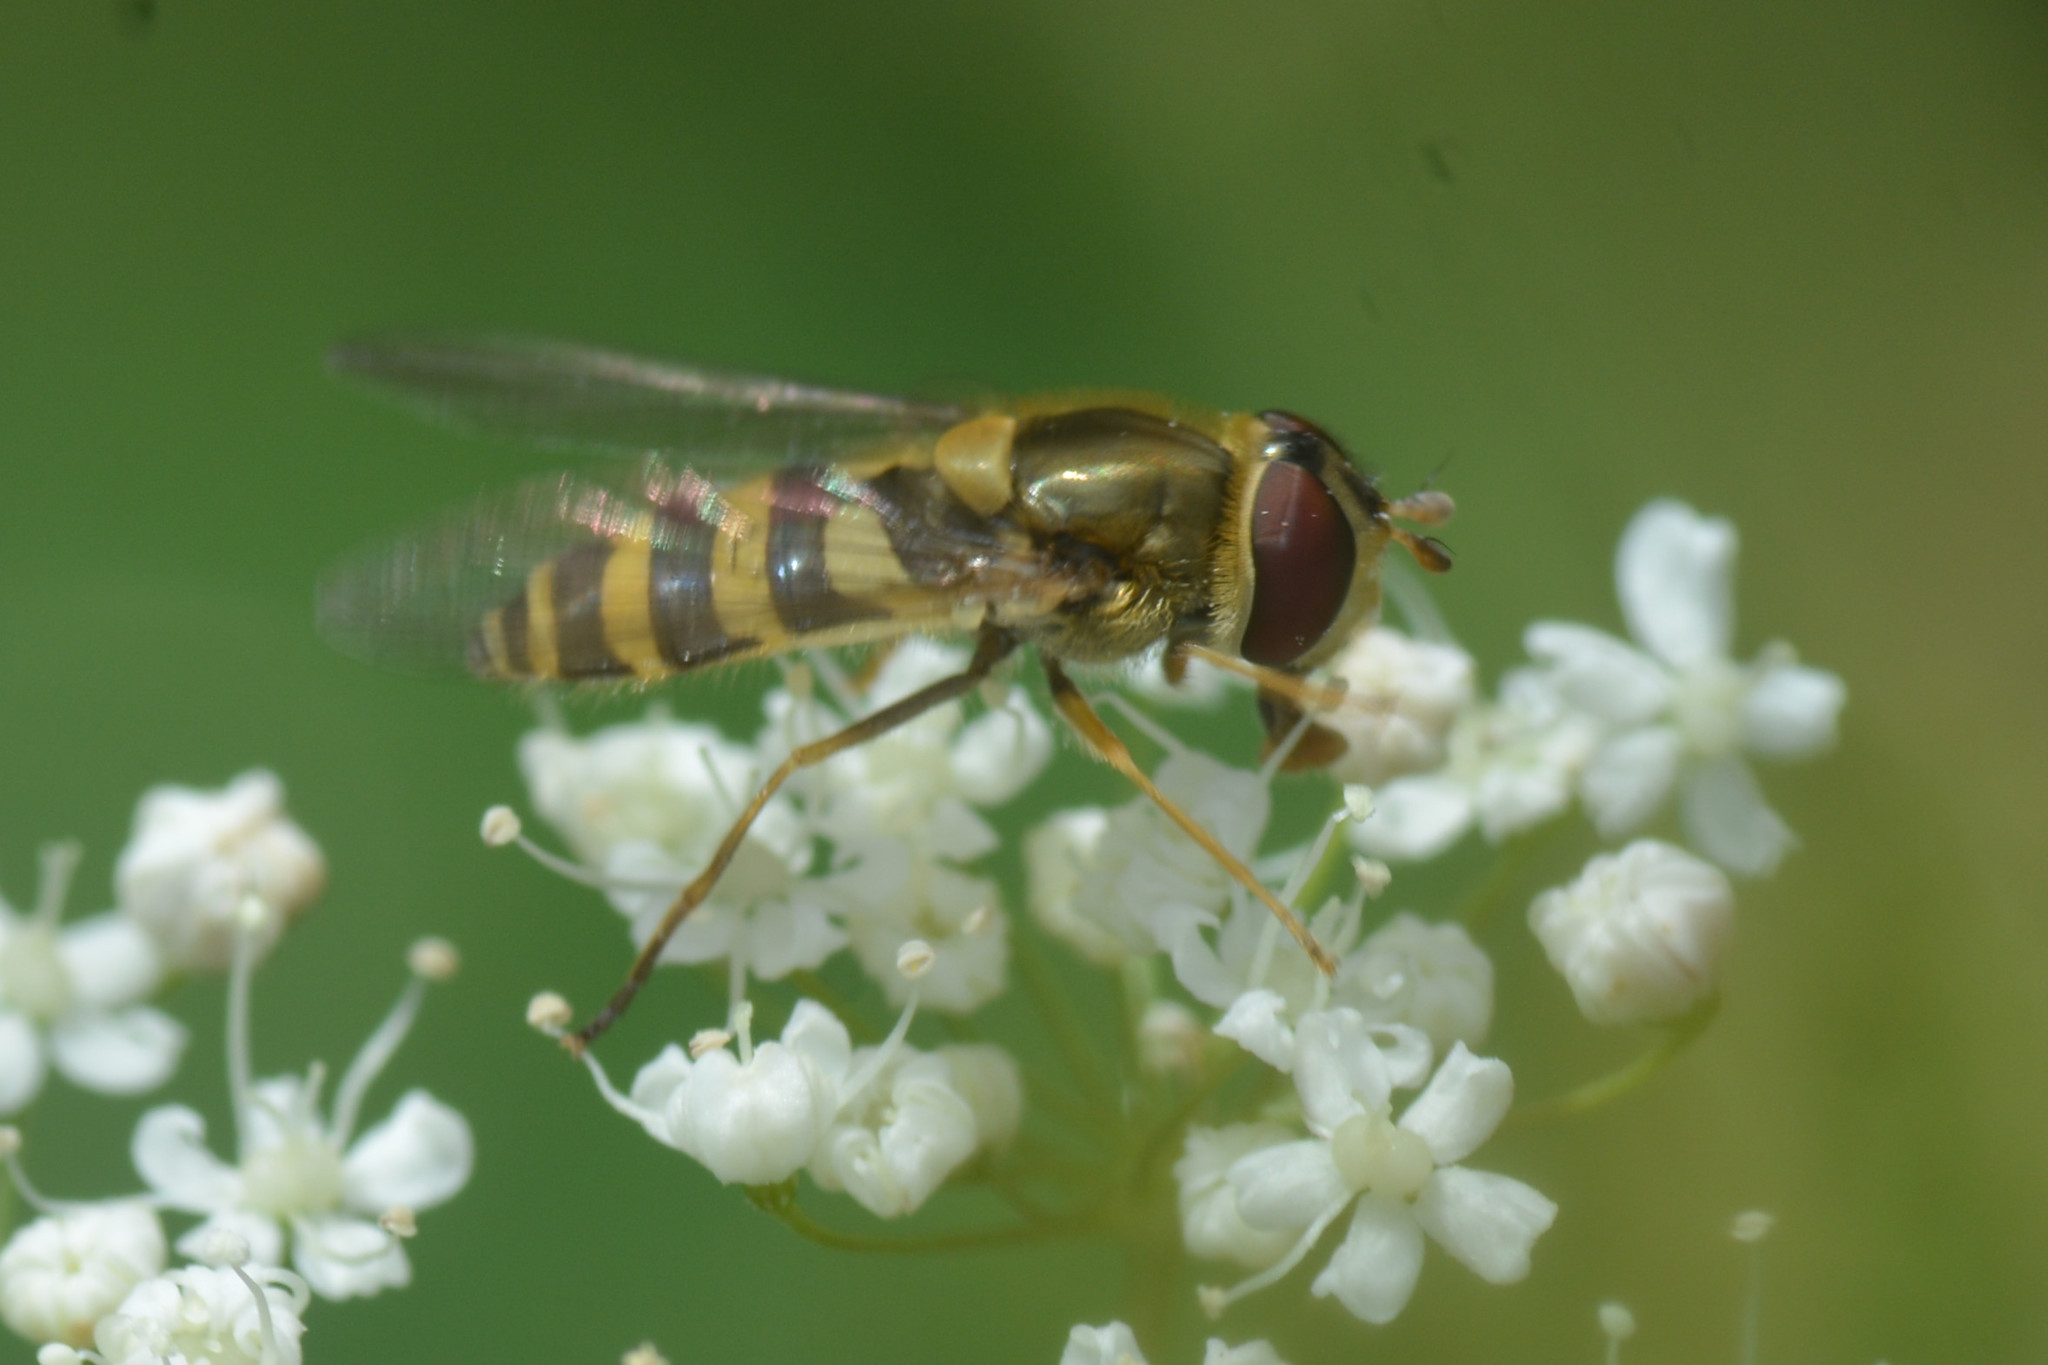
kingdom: Animalia
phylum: Arthropoda
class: Insecta
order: Diptera
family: Syrphidae
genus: Syrphus
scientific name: Syrphus
